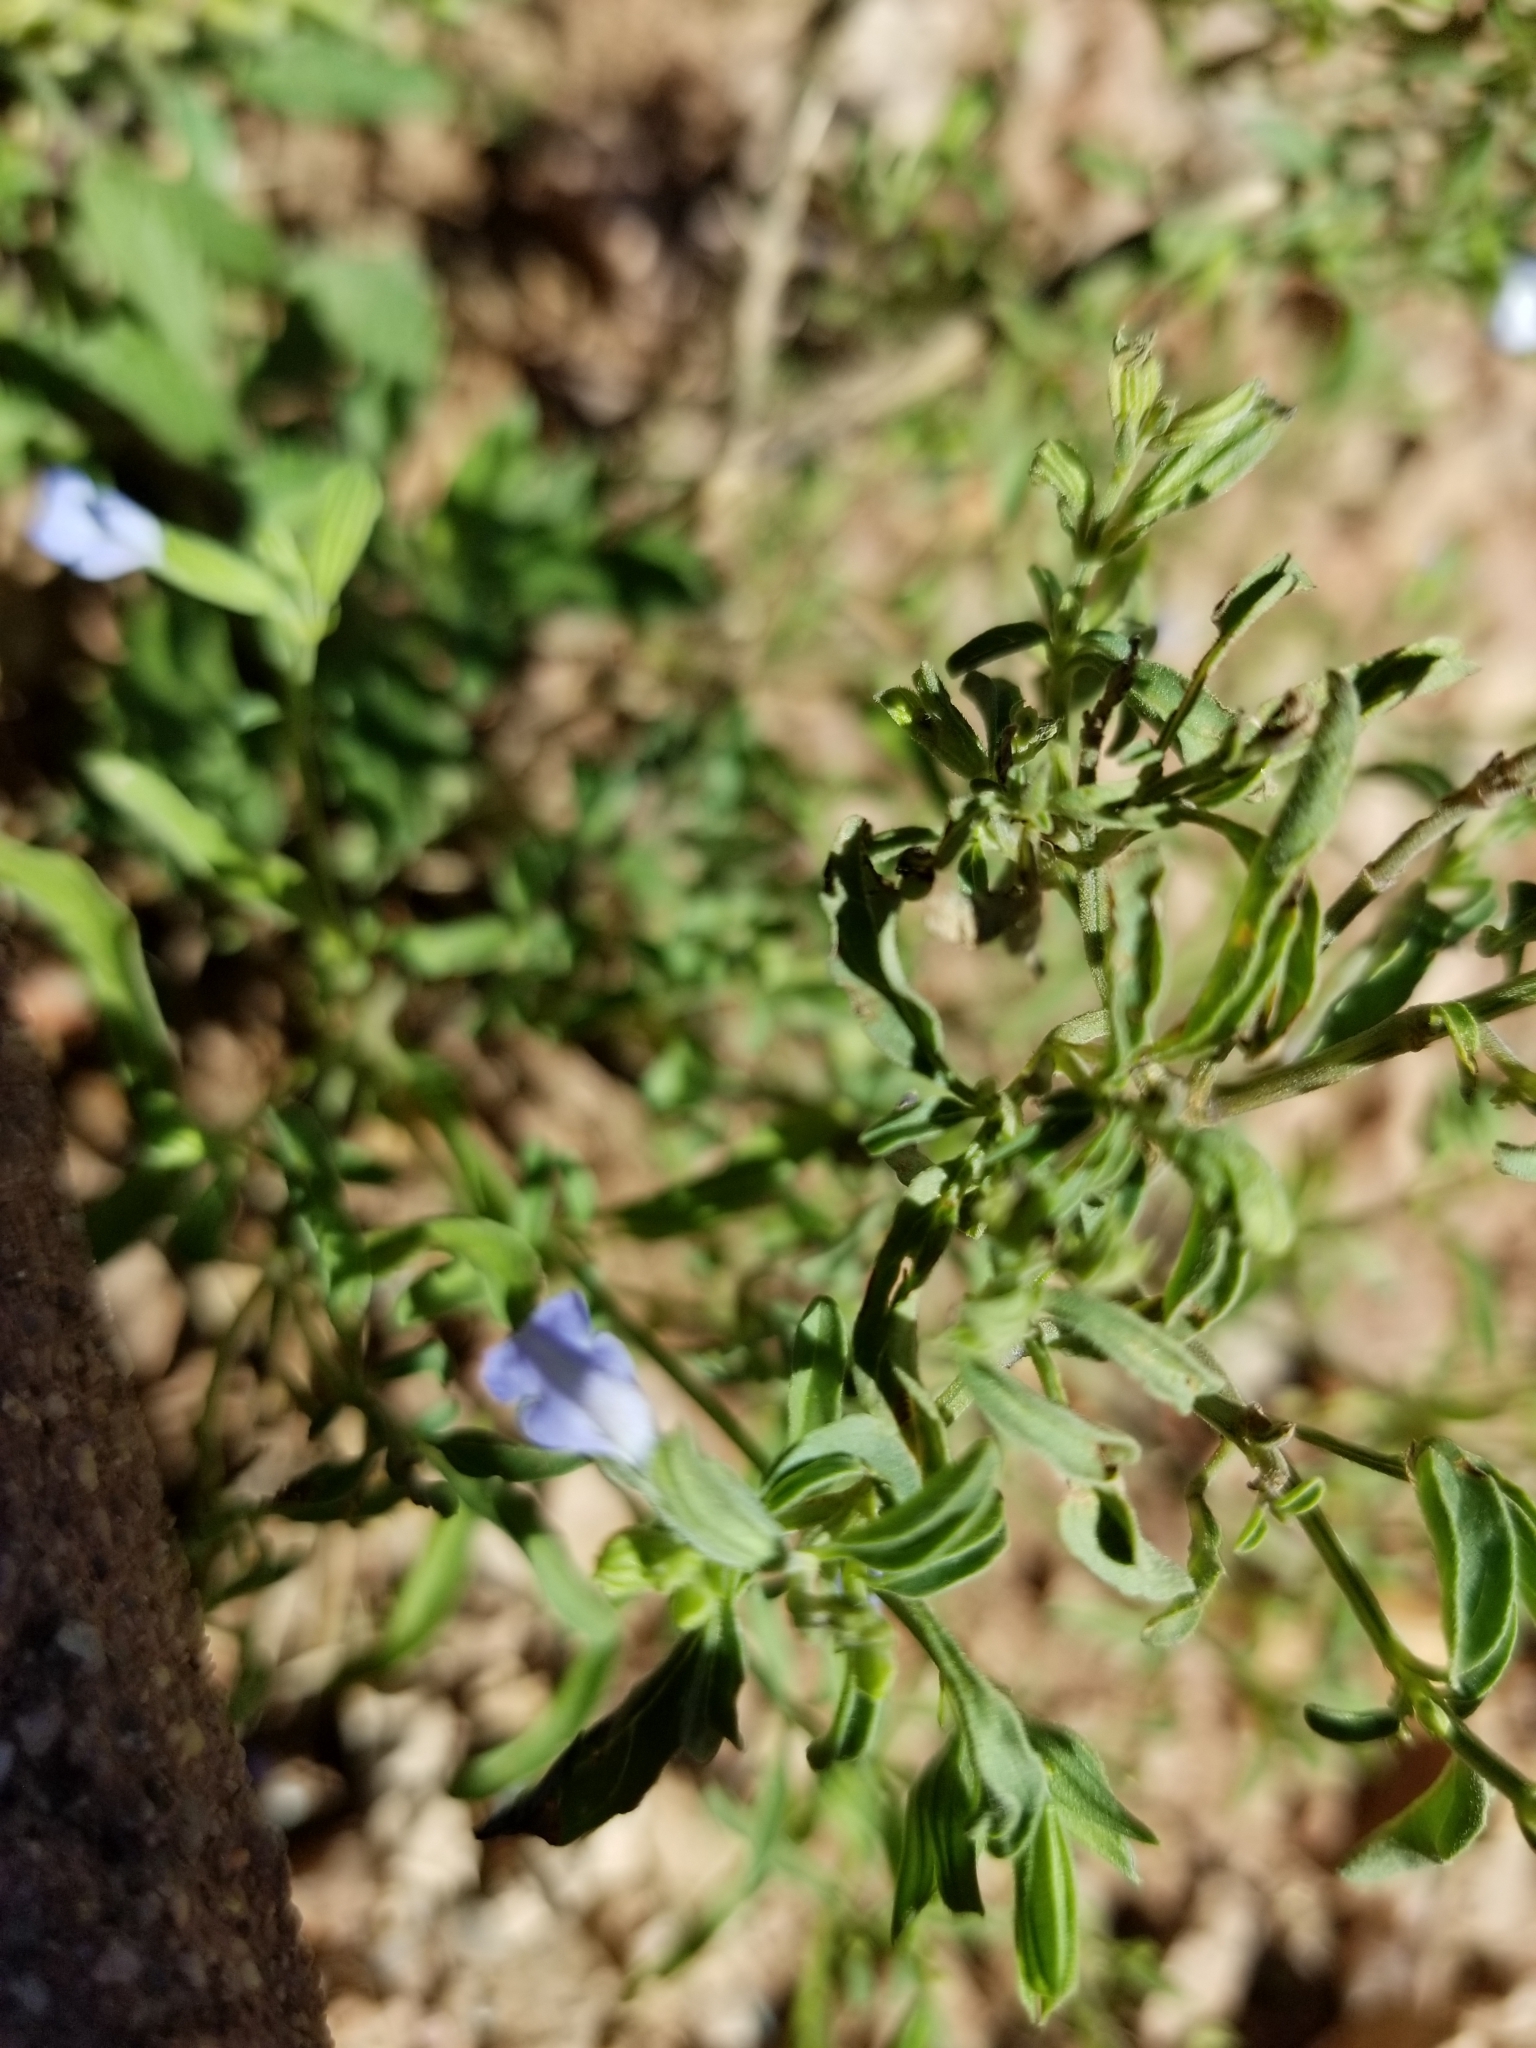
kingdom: Plantae
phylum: Tracheophyta
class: Magnoliopsida
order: Lamiales
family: Lamiaceae
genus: Salvia
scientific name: Salvia reflexa
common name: Mintweed
